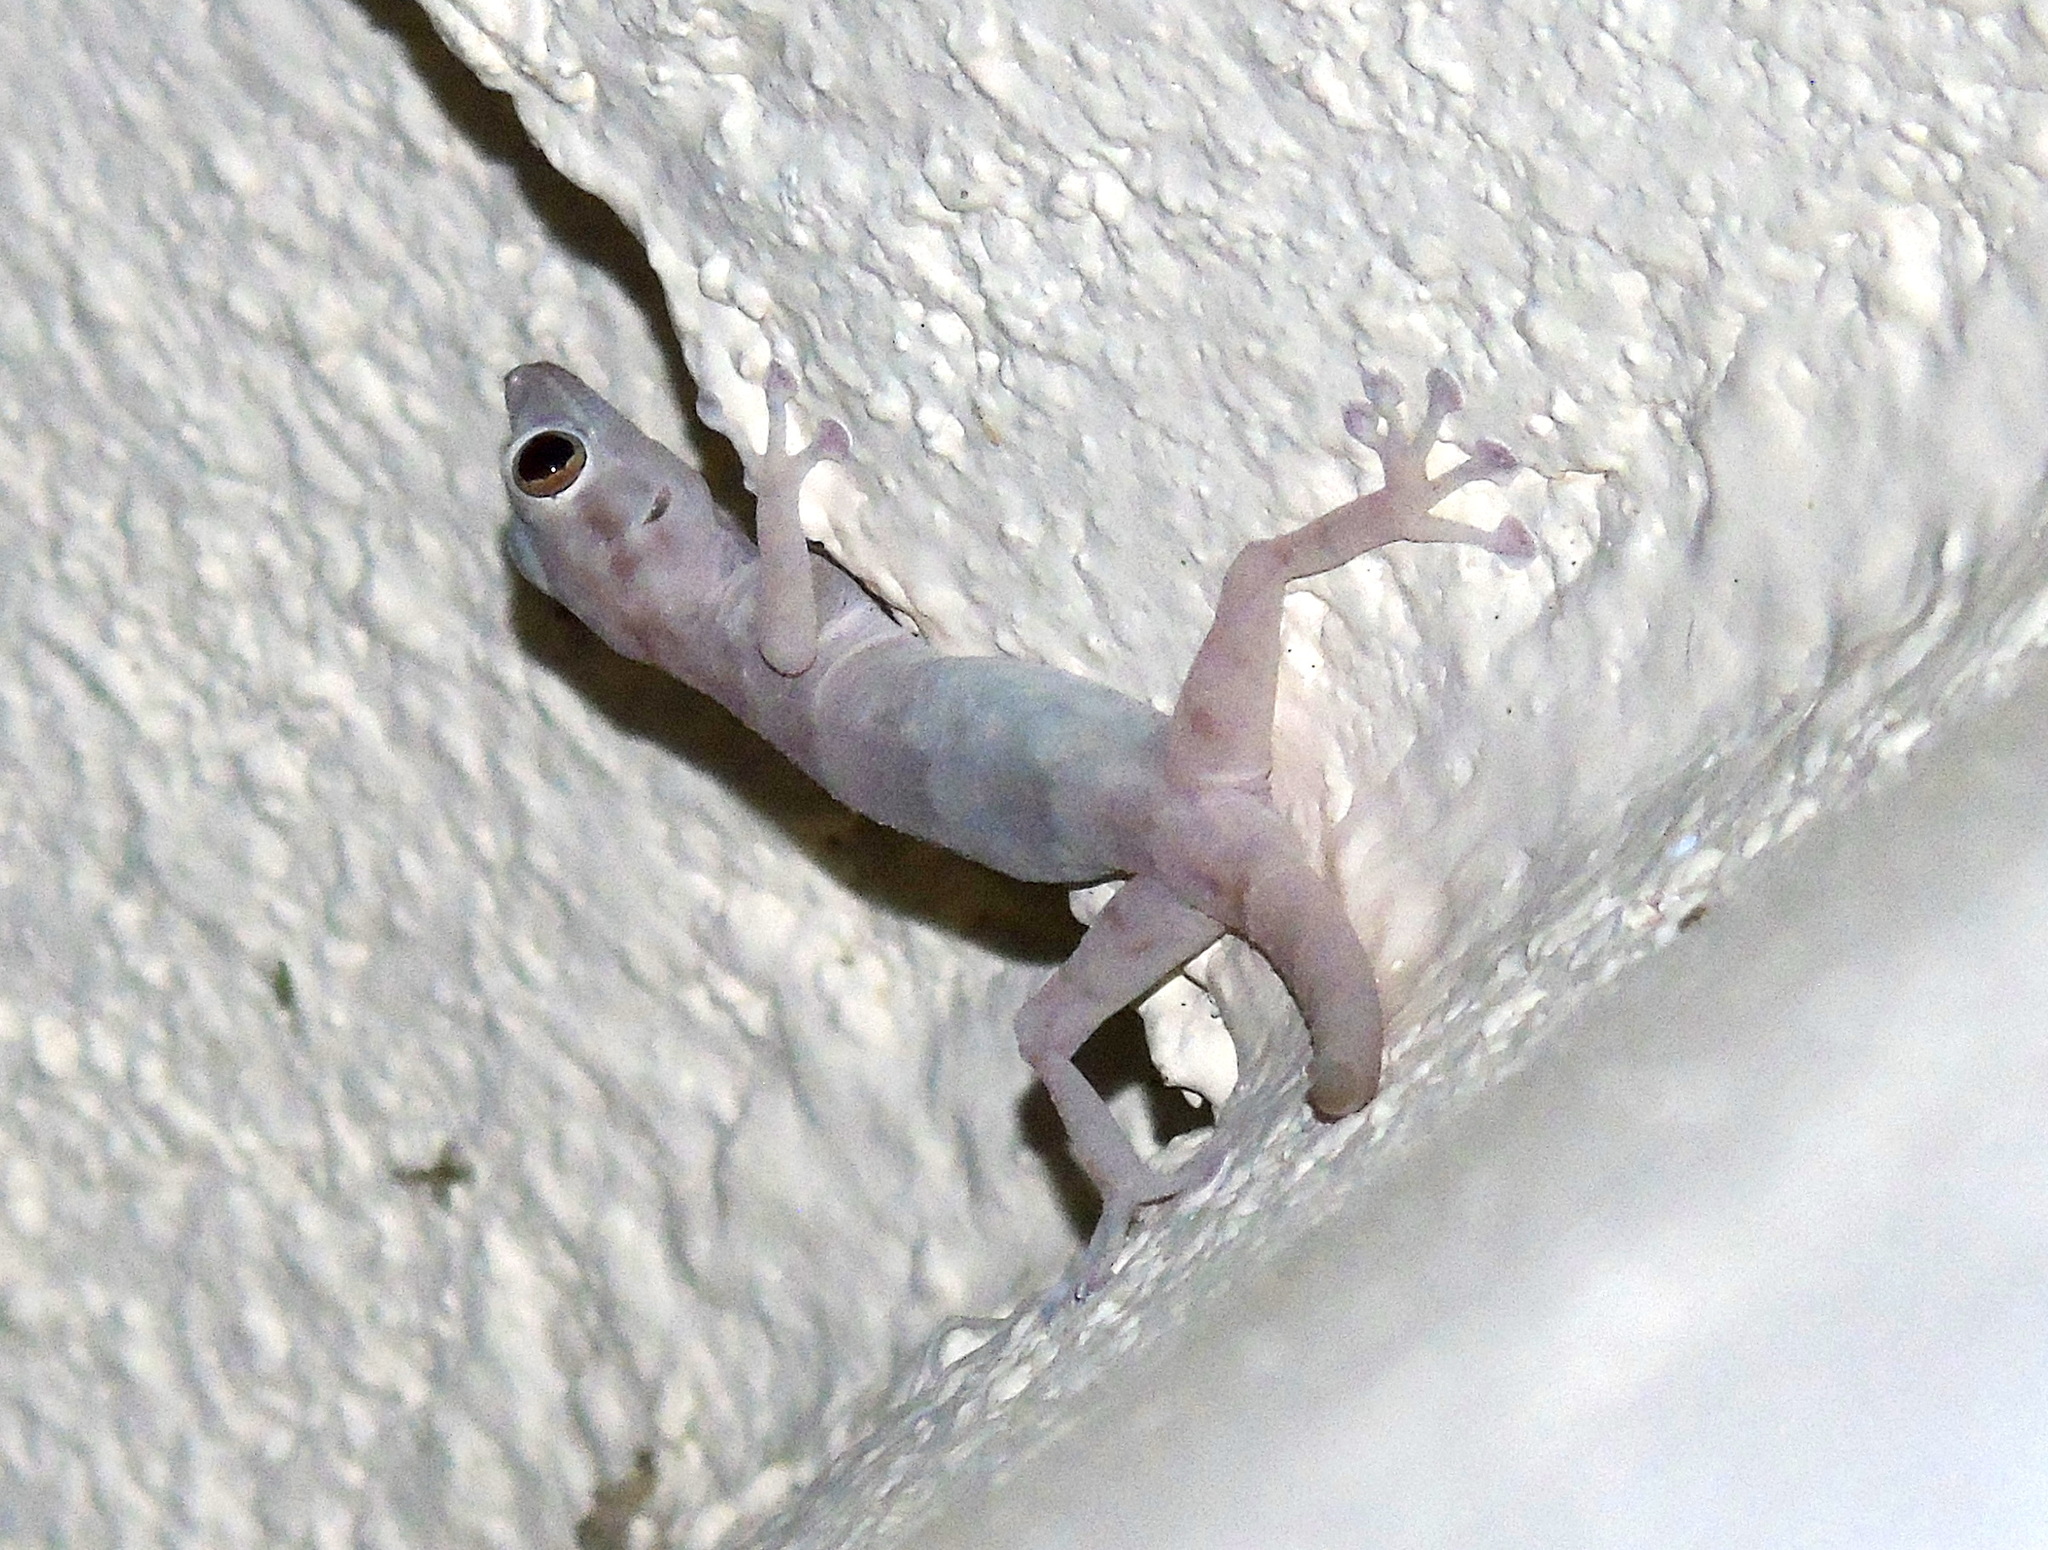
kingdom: Animalia
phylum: Chordata
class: Squamata
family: Phyllodactylidae
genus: Ptyodactylus
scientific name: Ptyodactylus hasselquistii
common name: Hasselquist’s fan-footed gecko
